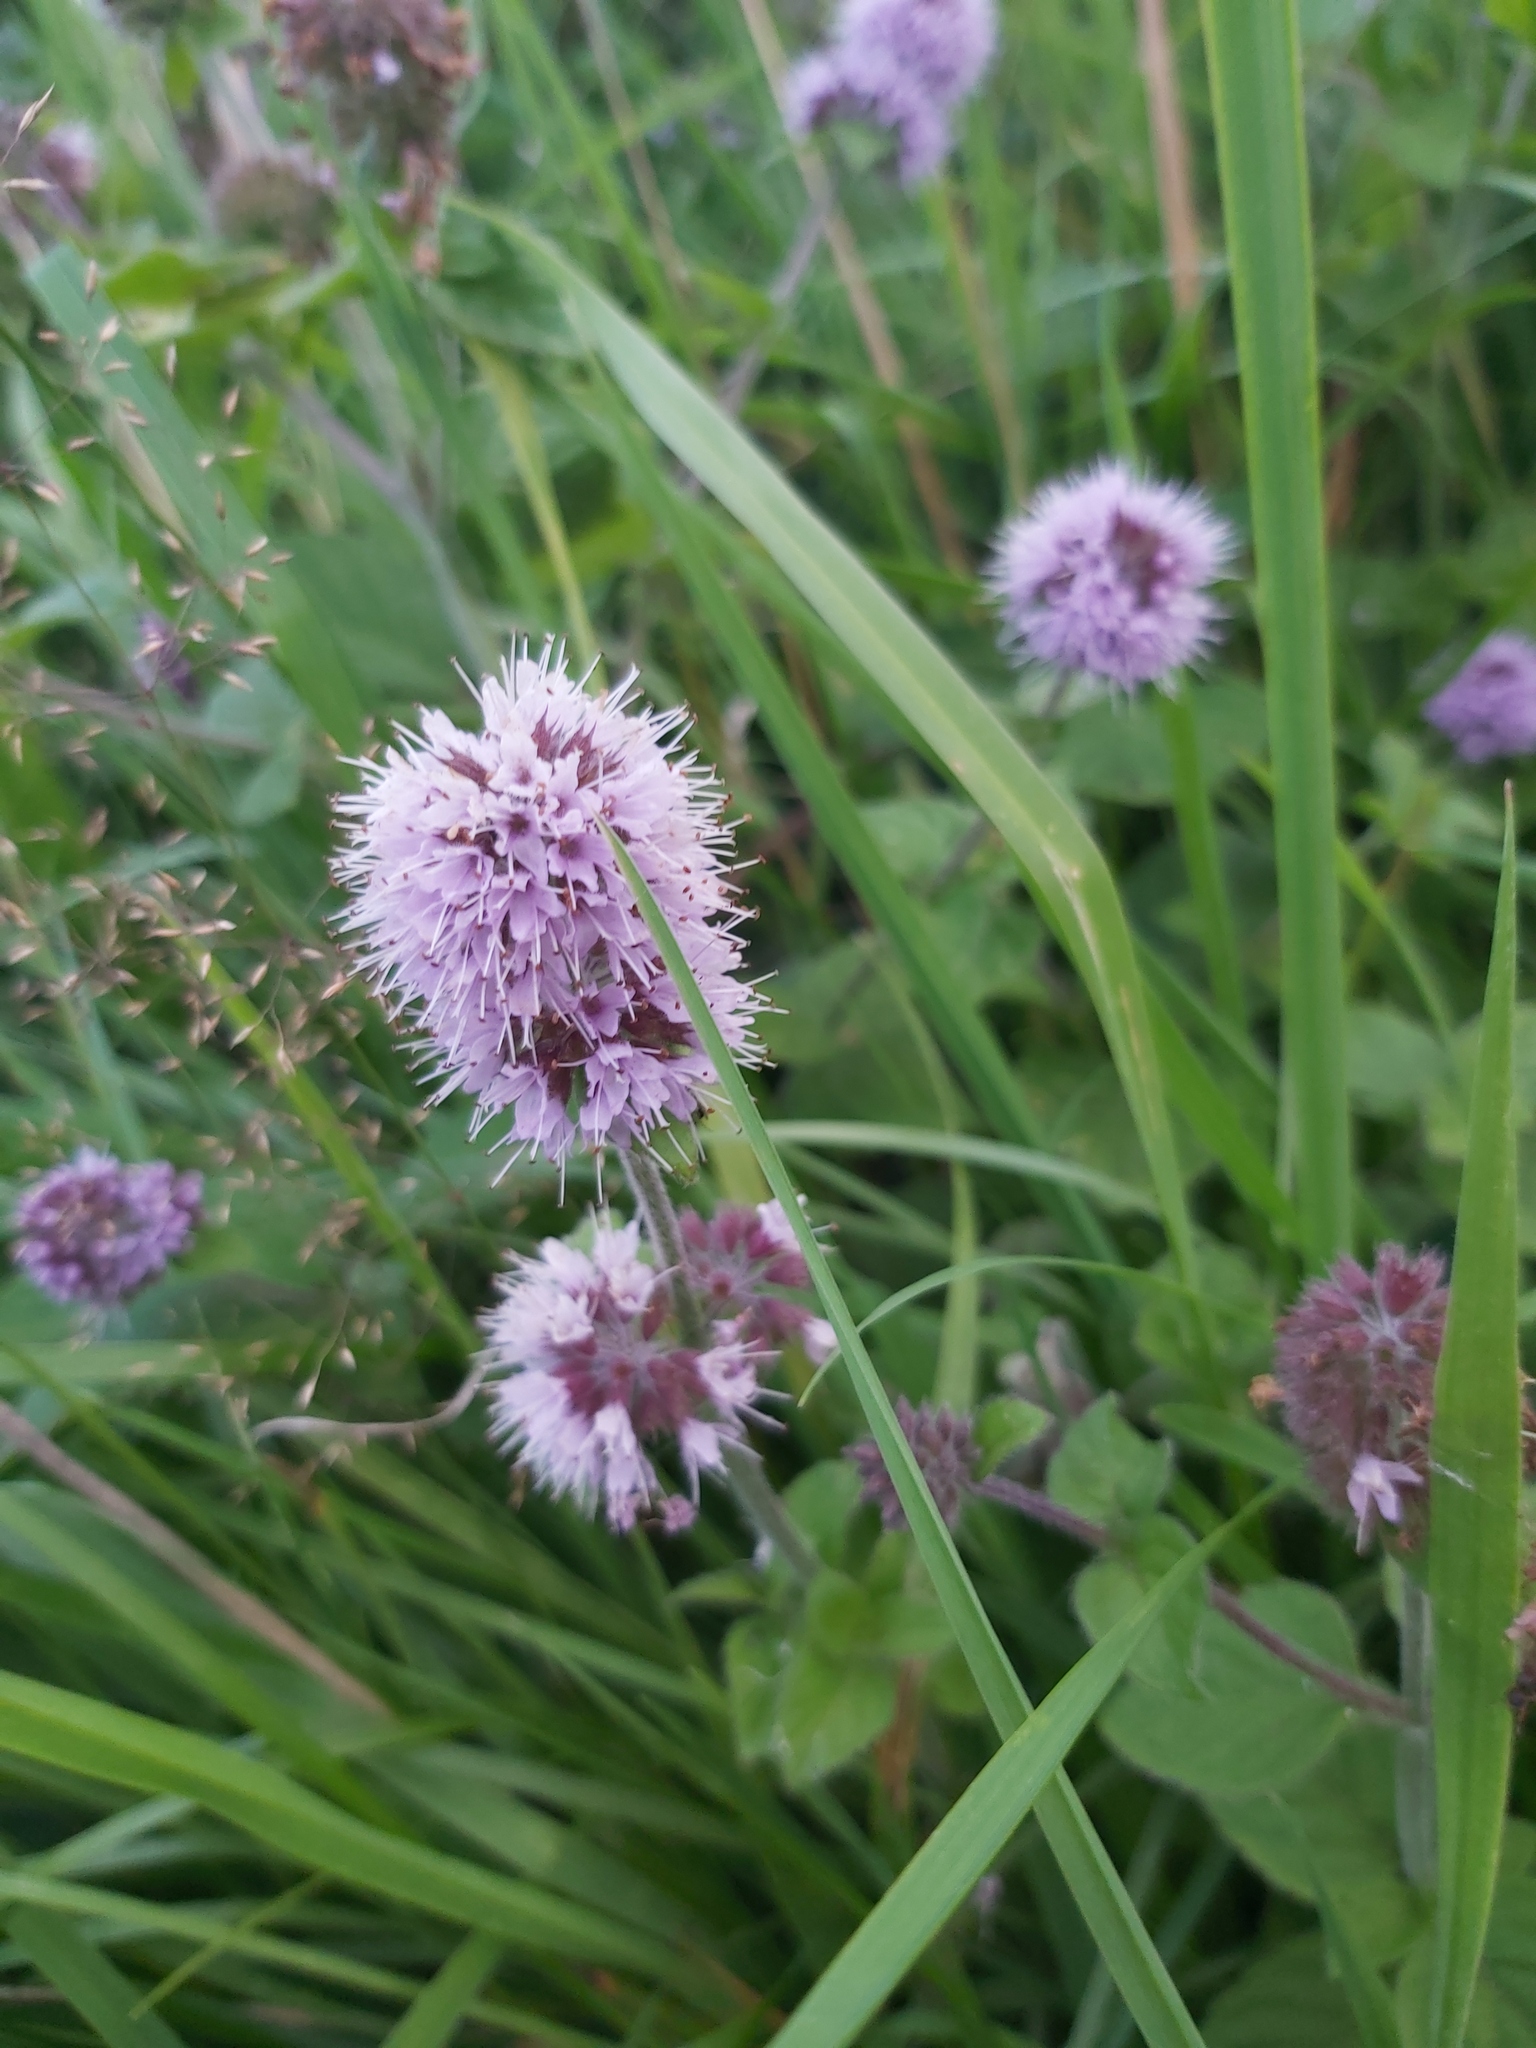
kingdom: Plantae
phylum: Tracheophyta
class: Magnoliopsida
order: Lamiales
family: Lamiaceae
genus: Mentha
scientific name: Mentha aquatica
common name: Water mint
